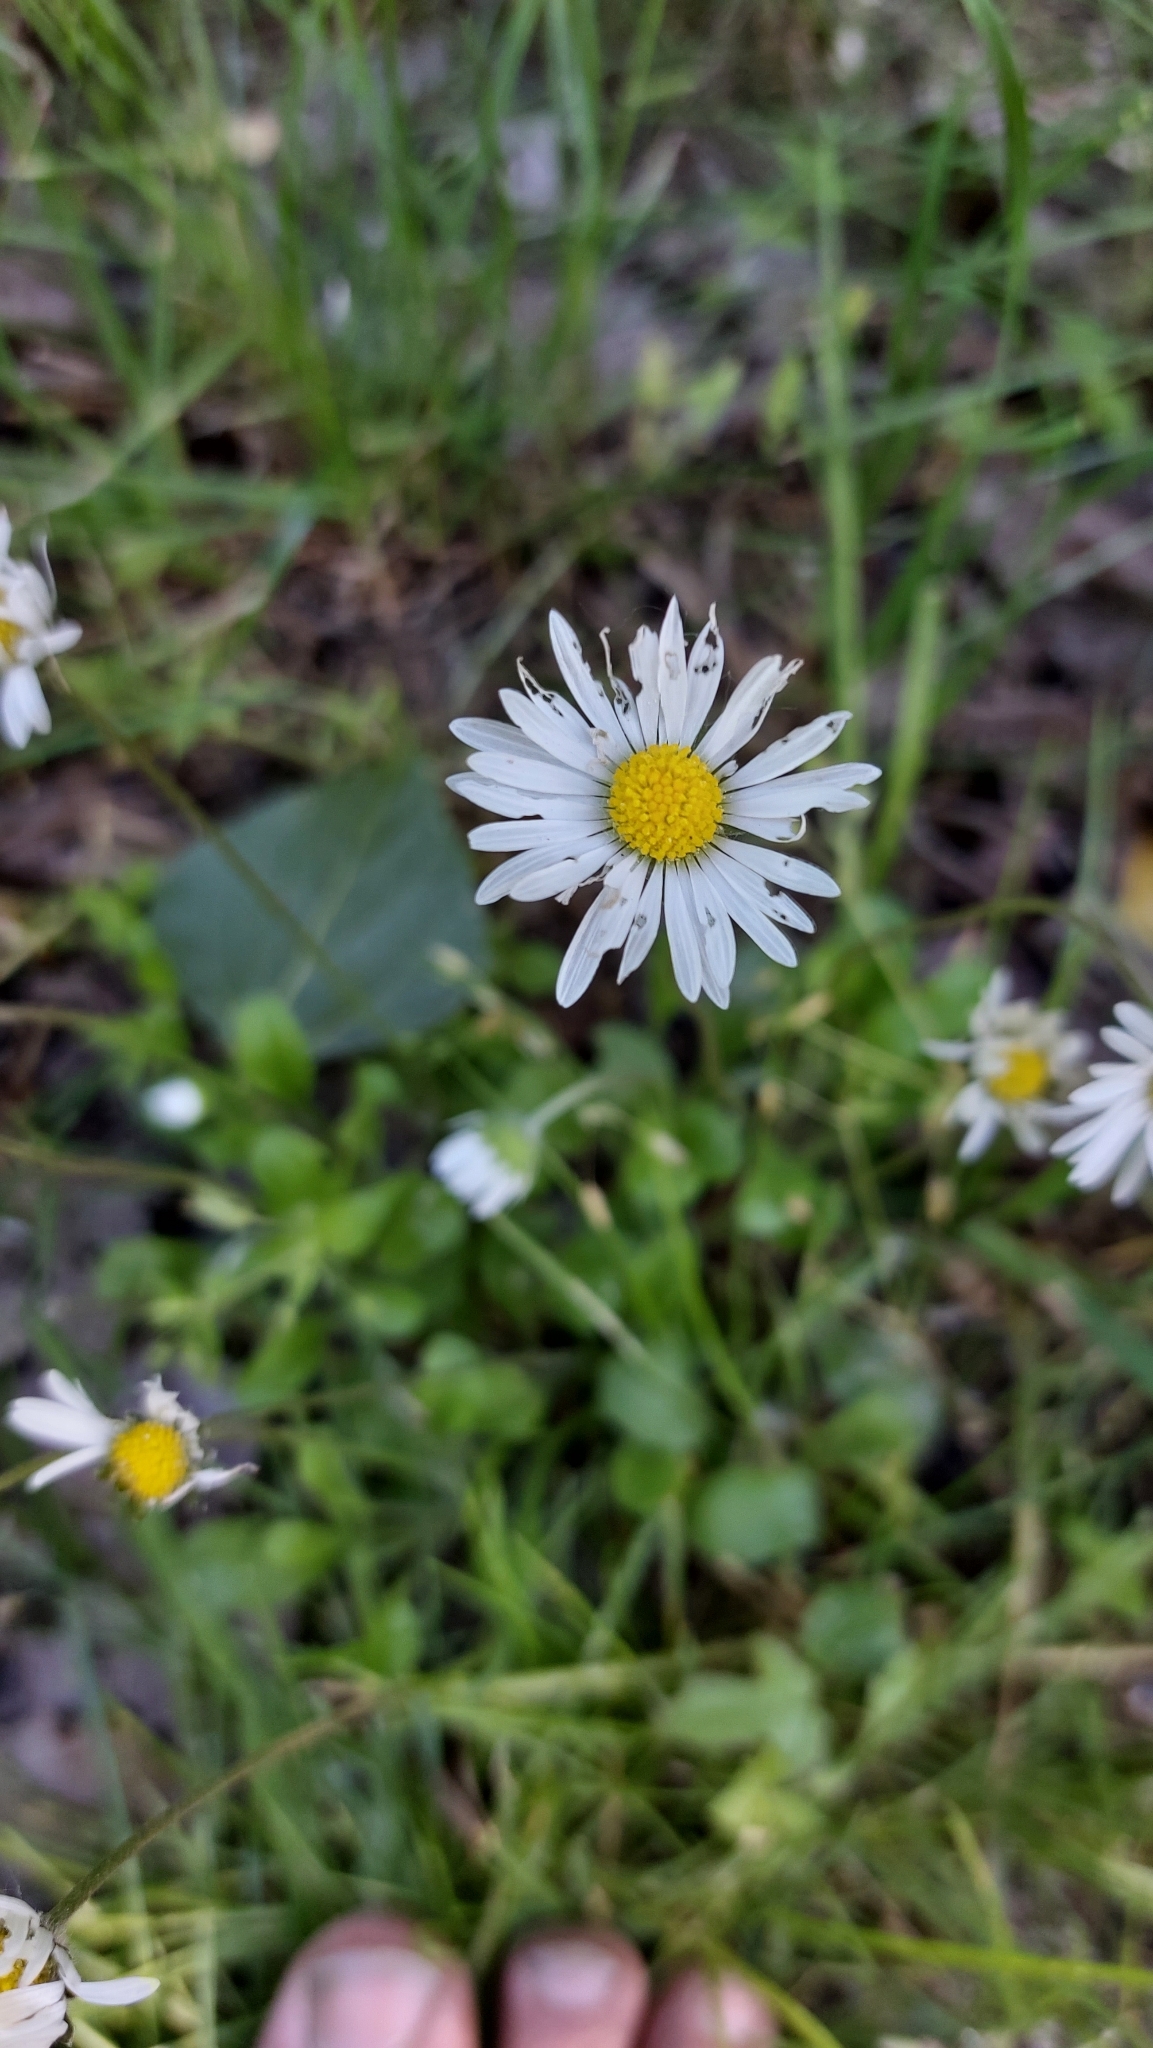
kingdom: Plantae
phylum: Tracheophyta
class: Magnoliopsida
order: Asterales
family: Asteraceae
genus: Bellis
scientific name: Bellis perennis
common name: Lawndaisy
